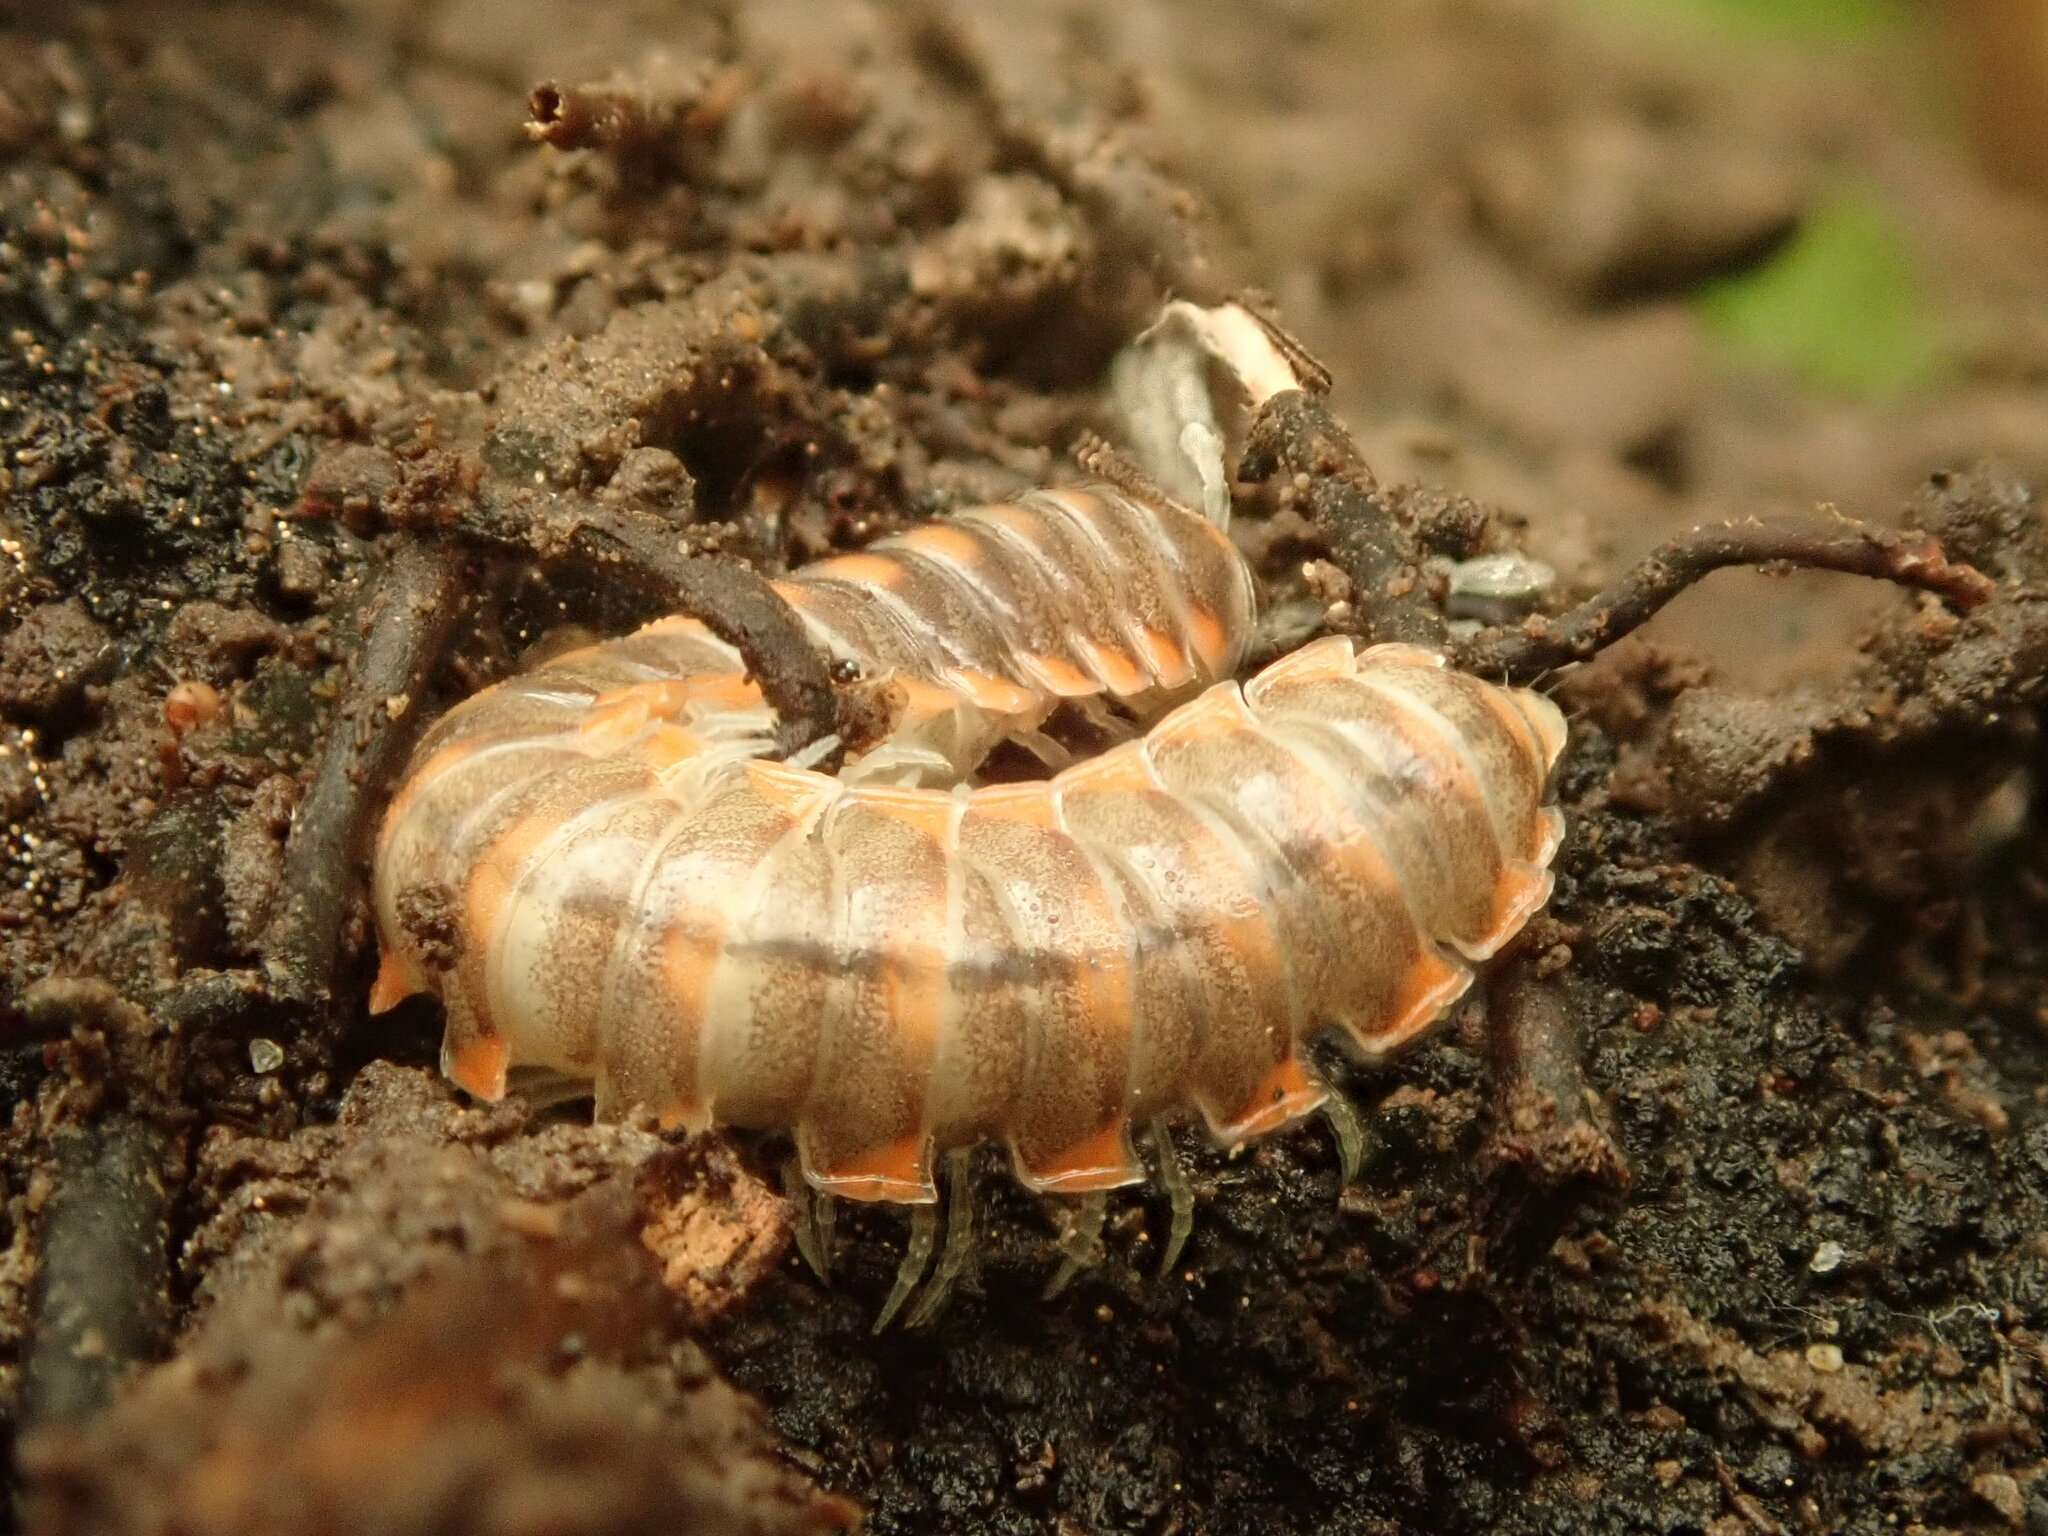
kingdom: Animalia
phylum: Arthropoda
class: Diplopoda
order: Polydesmida
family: Xystodesmidae
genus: Euryurus
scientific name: Euryurus leachii
